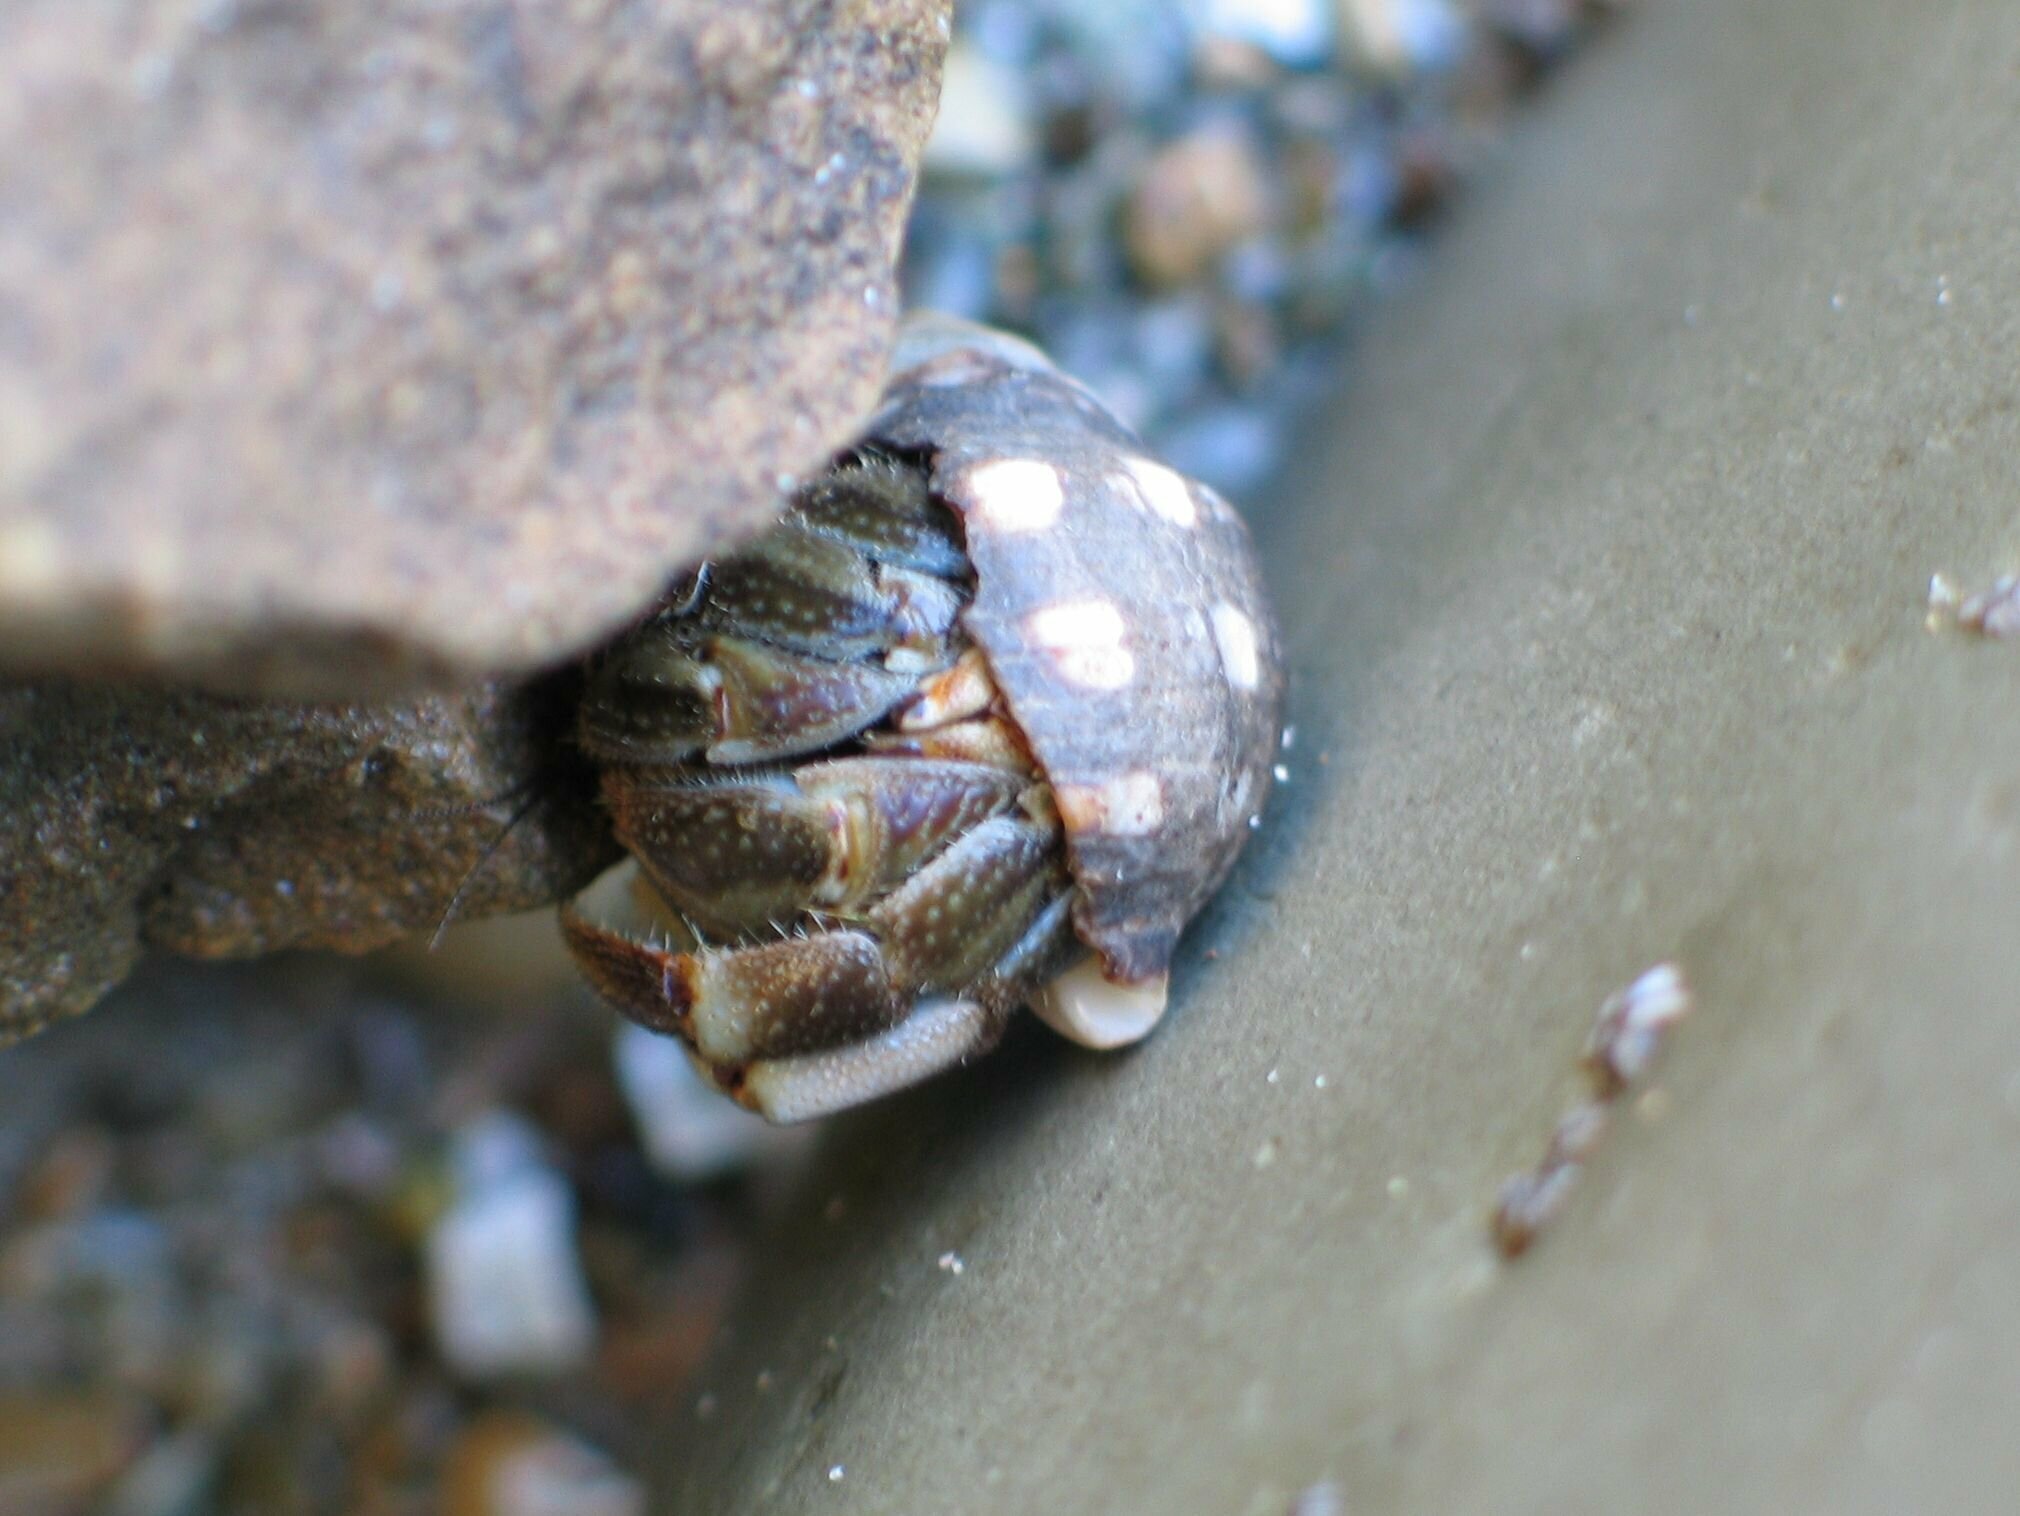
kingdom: Animalia
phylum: Arthropoda
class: Malacostraca
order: Decapoda
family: Coenobitidae
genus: Coenobita
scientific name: Coenobita compressus
